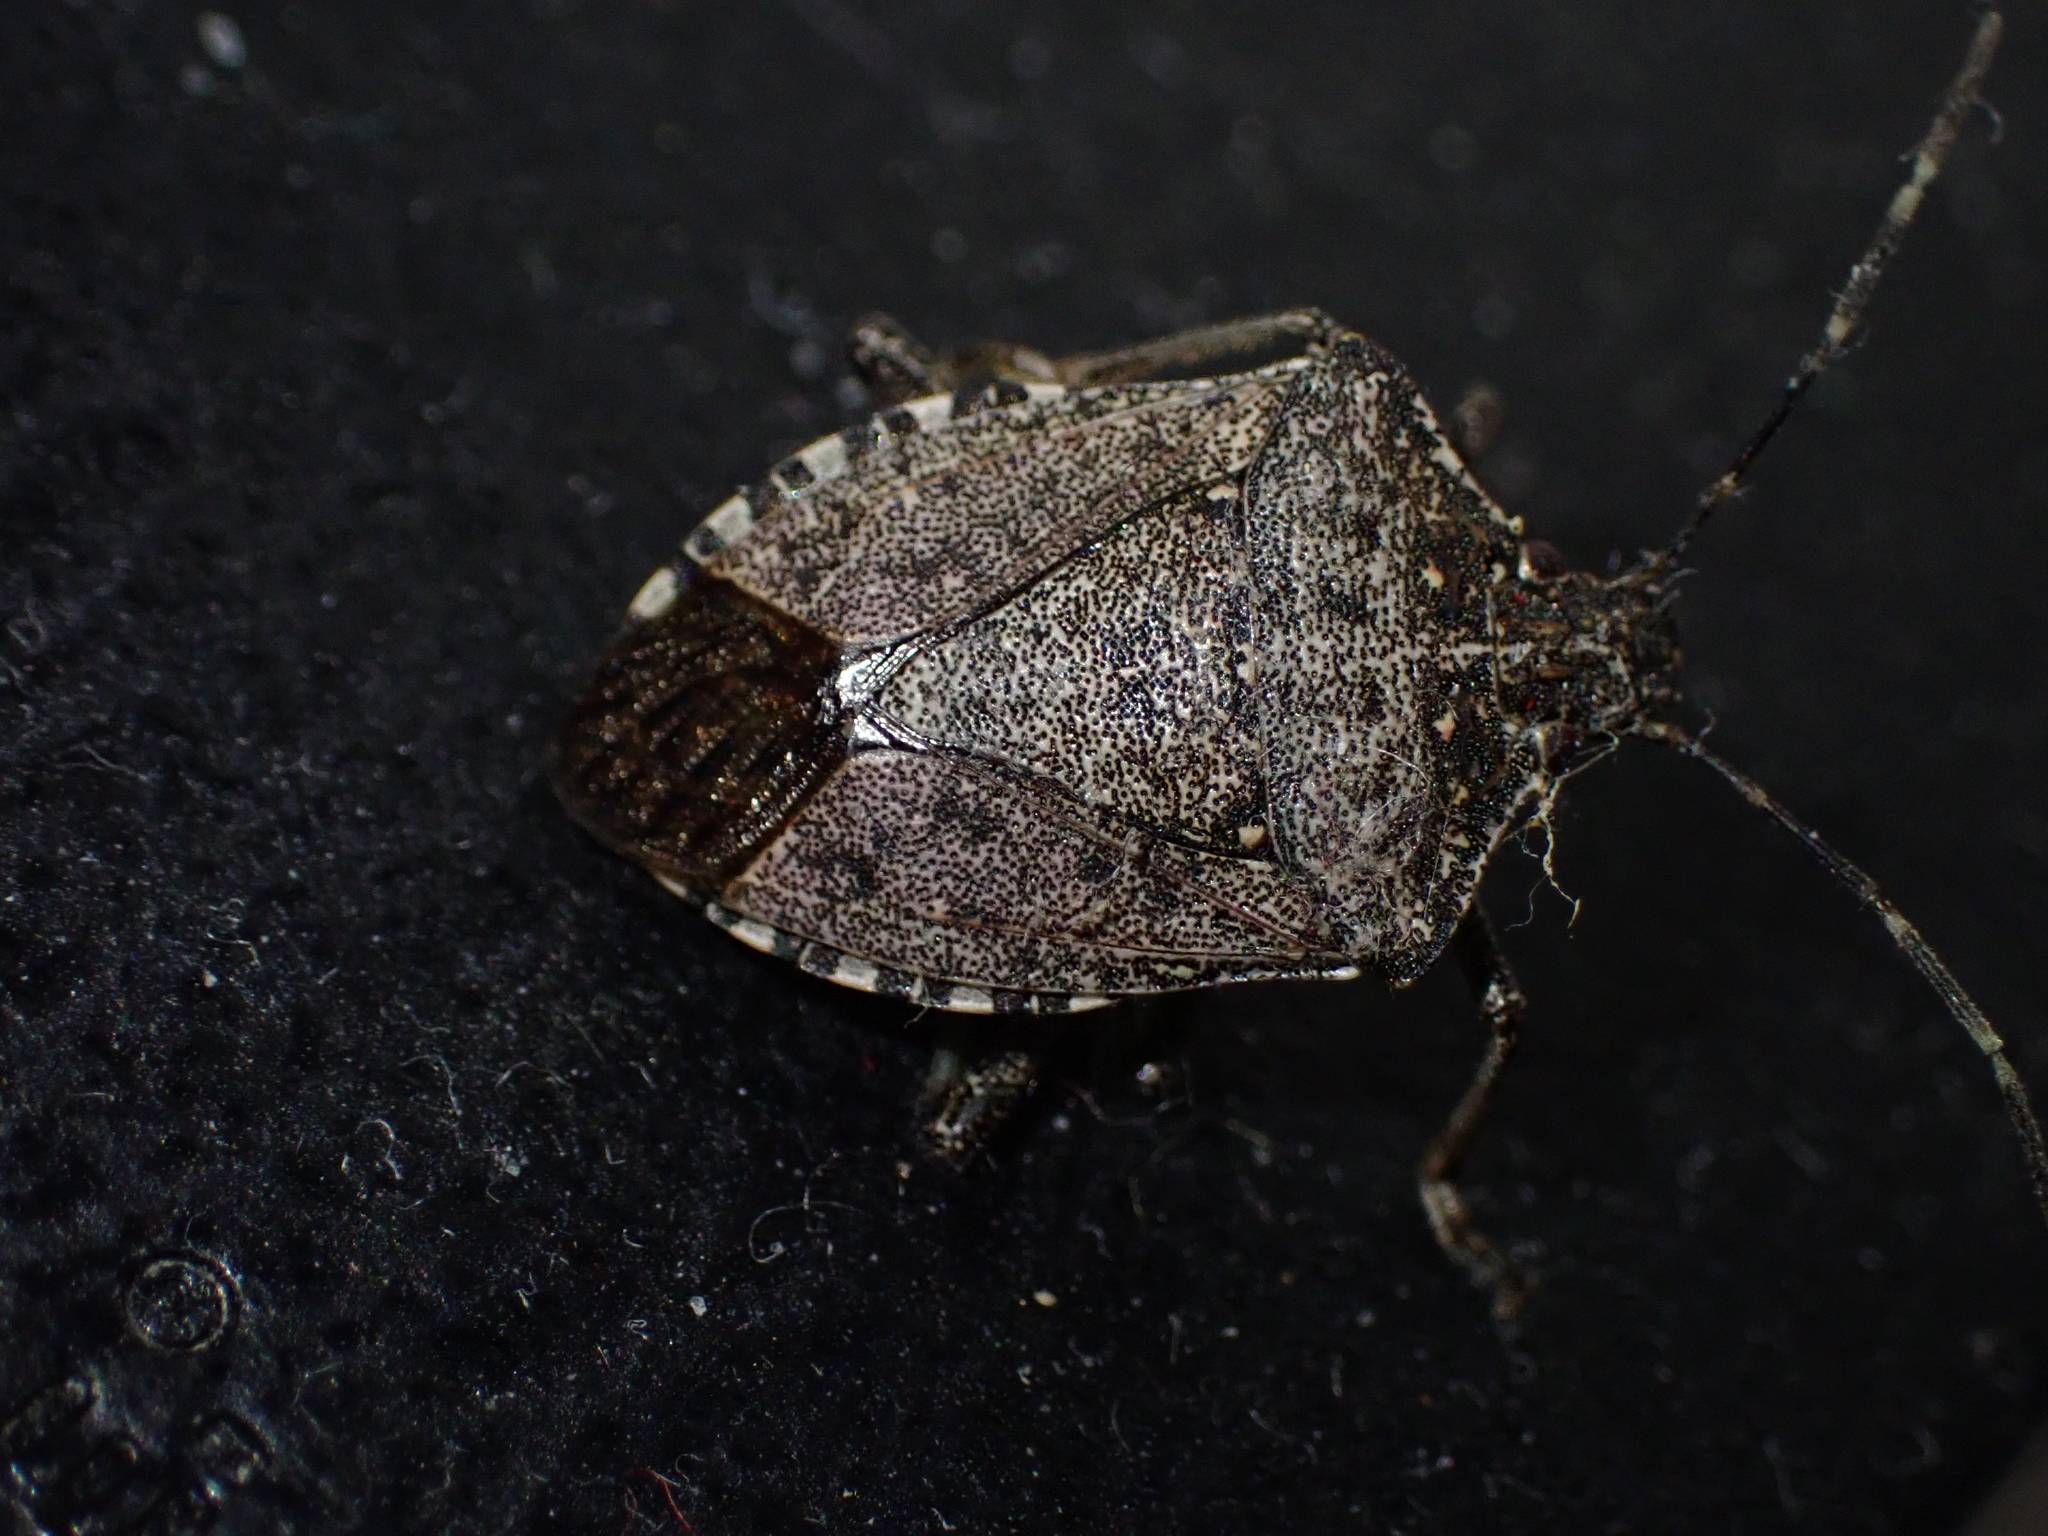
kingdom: Animalia
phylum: Arthropoda
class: Insecta
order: Hemiptera
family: Pentatomidae
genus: Halyomorpha
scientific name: Halyomorpha halys
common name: Brown marmorated stink bug
